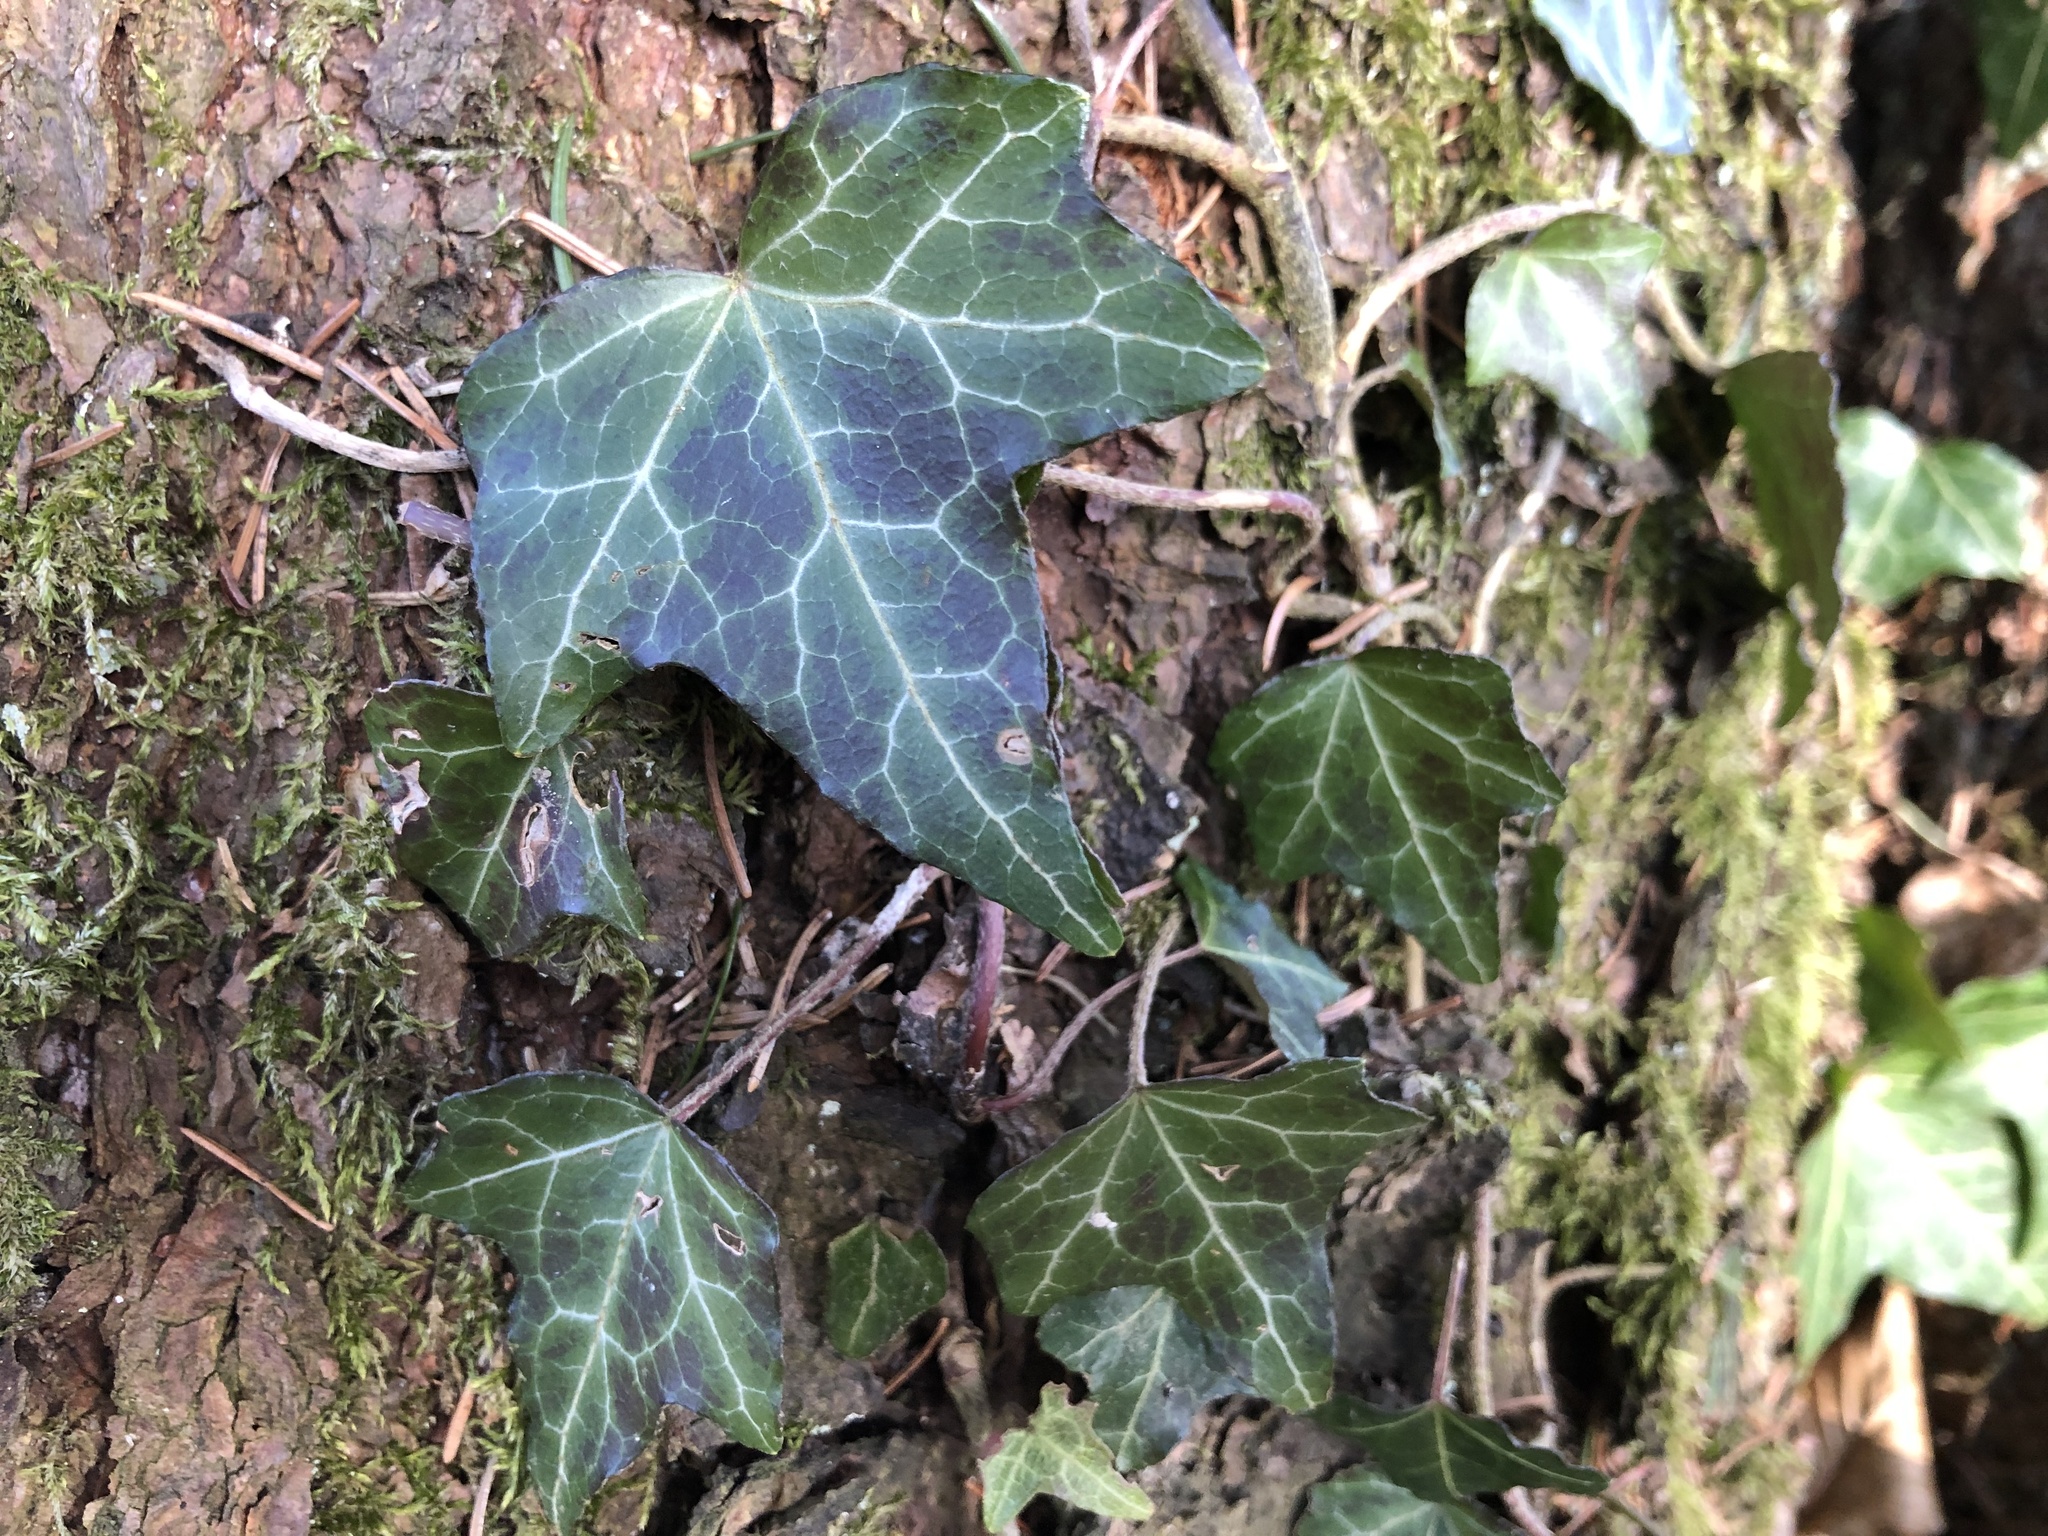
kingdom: Plantae
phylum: Tracheophyta
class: Magnoliopsida
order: Apiales
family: Araliaceae
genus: Hedera
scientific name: Hedera helix
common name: Ivy
